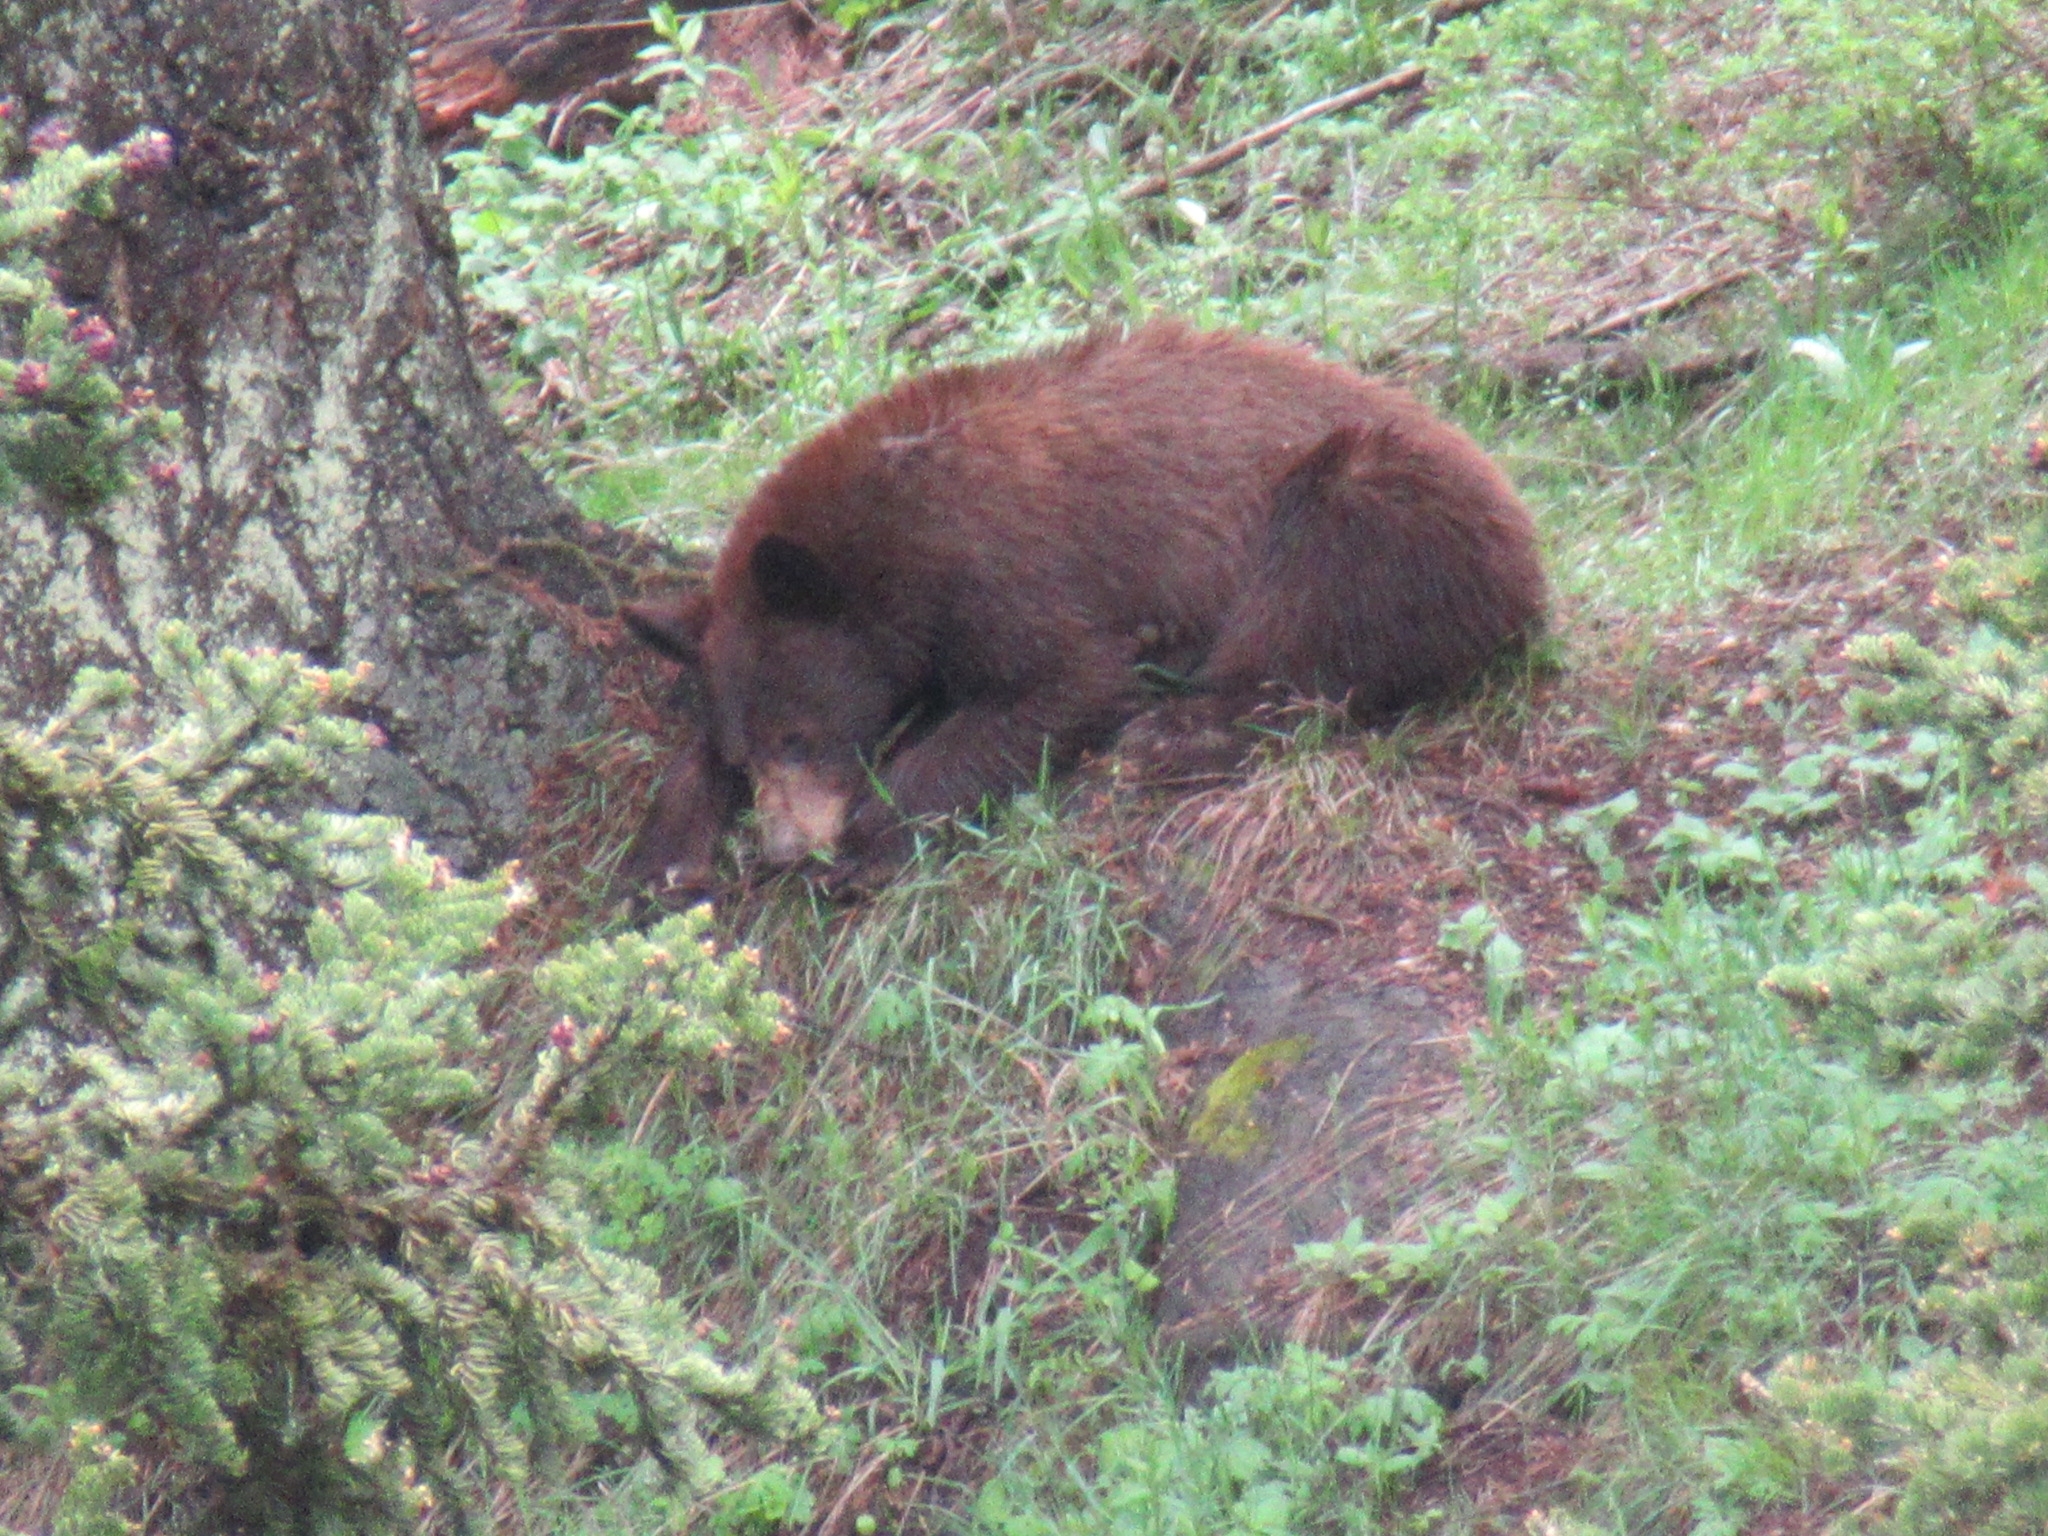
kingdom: Animalia
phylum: Chordata
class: Mammalia
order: Carnivora
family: Ursidae
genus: Ursus
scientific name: Ursus americanus
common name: American black bear
